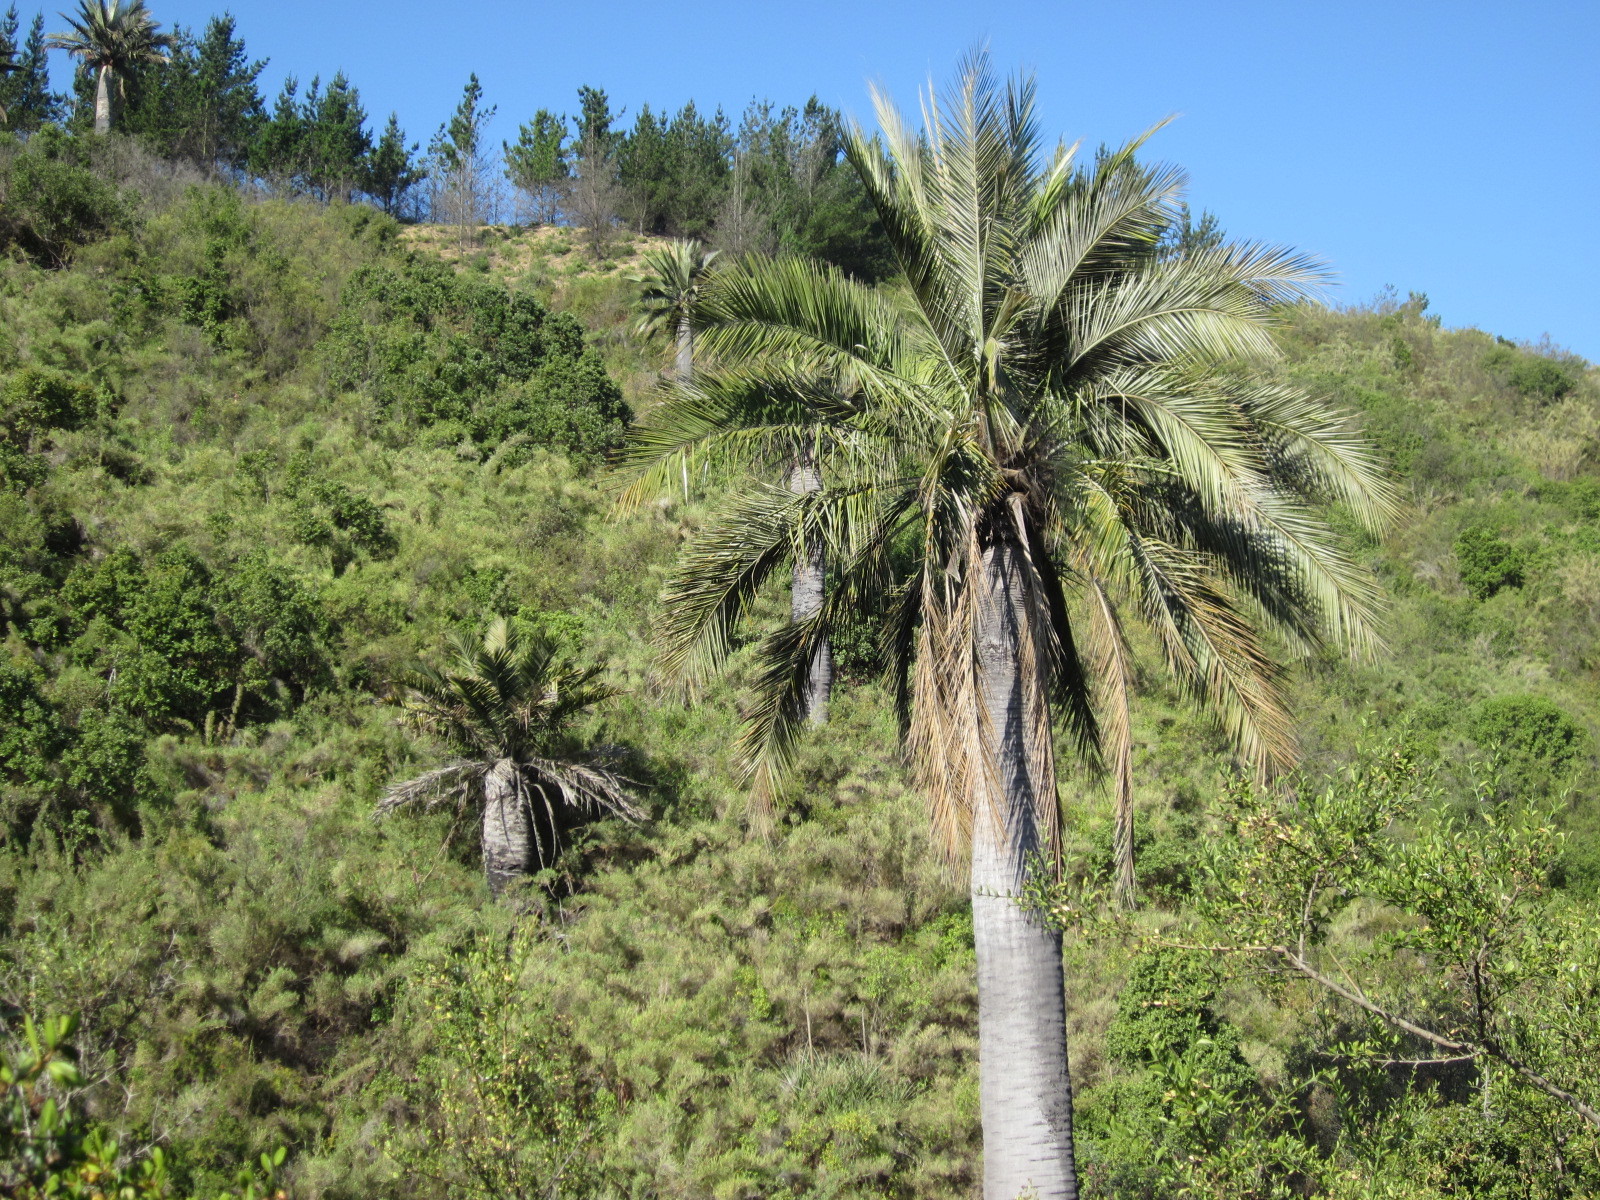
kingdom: Plantae
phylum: Tracheophyta
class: Liliopsida
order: Arecales
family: Arecaceae
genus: Jubaea
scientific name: Jubaea chilensis
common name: Coquito palm
